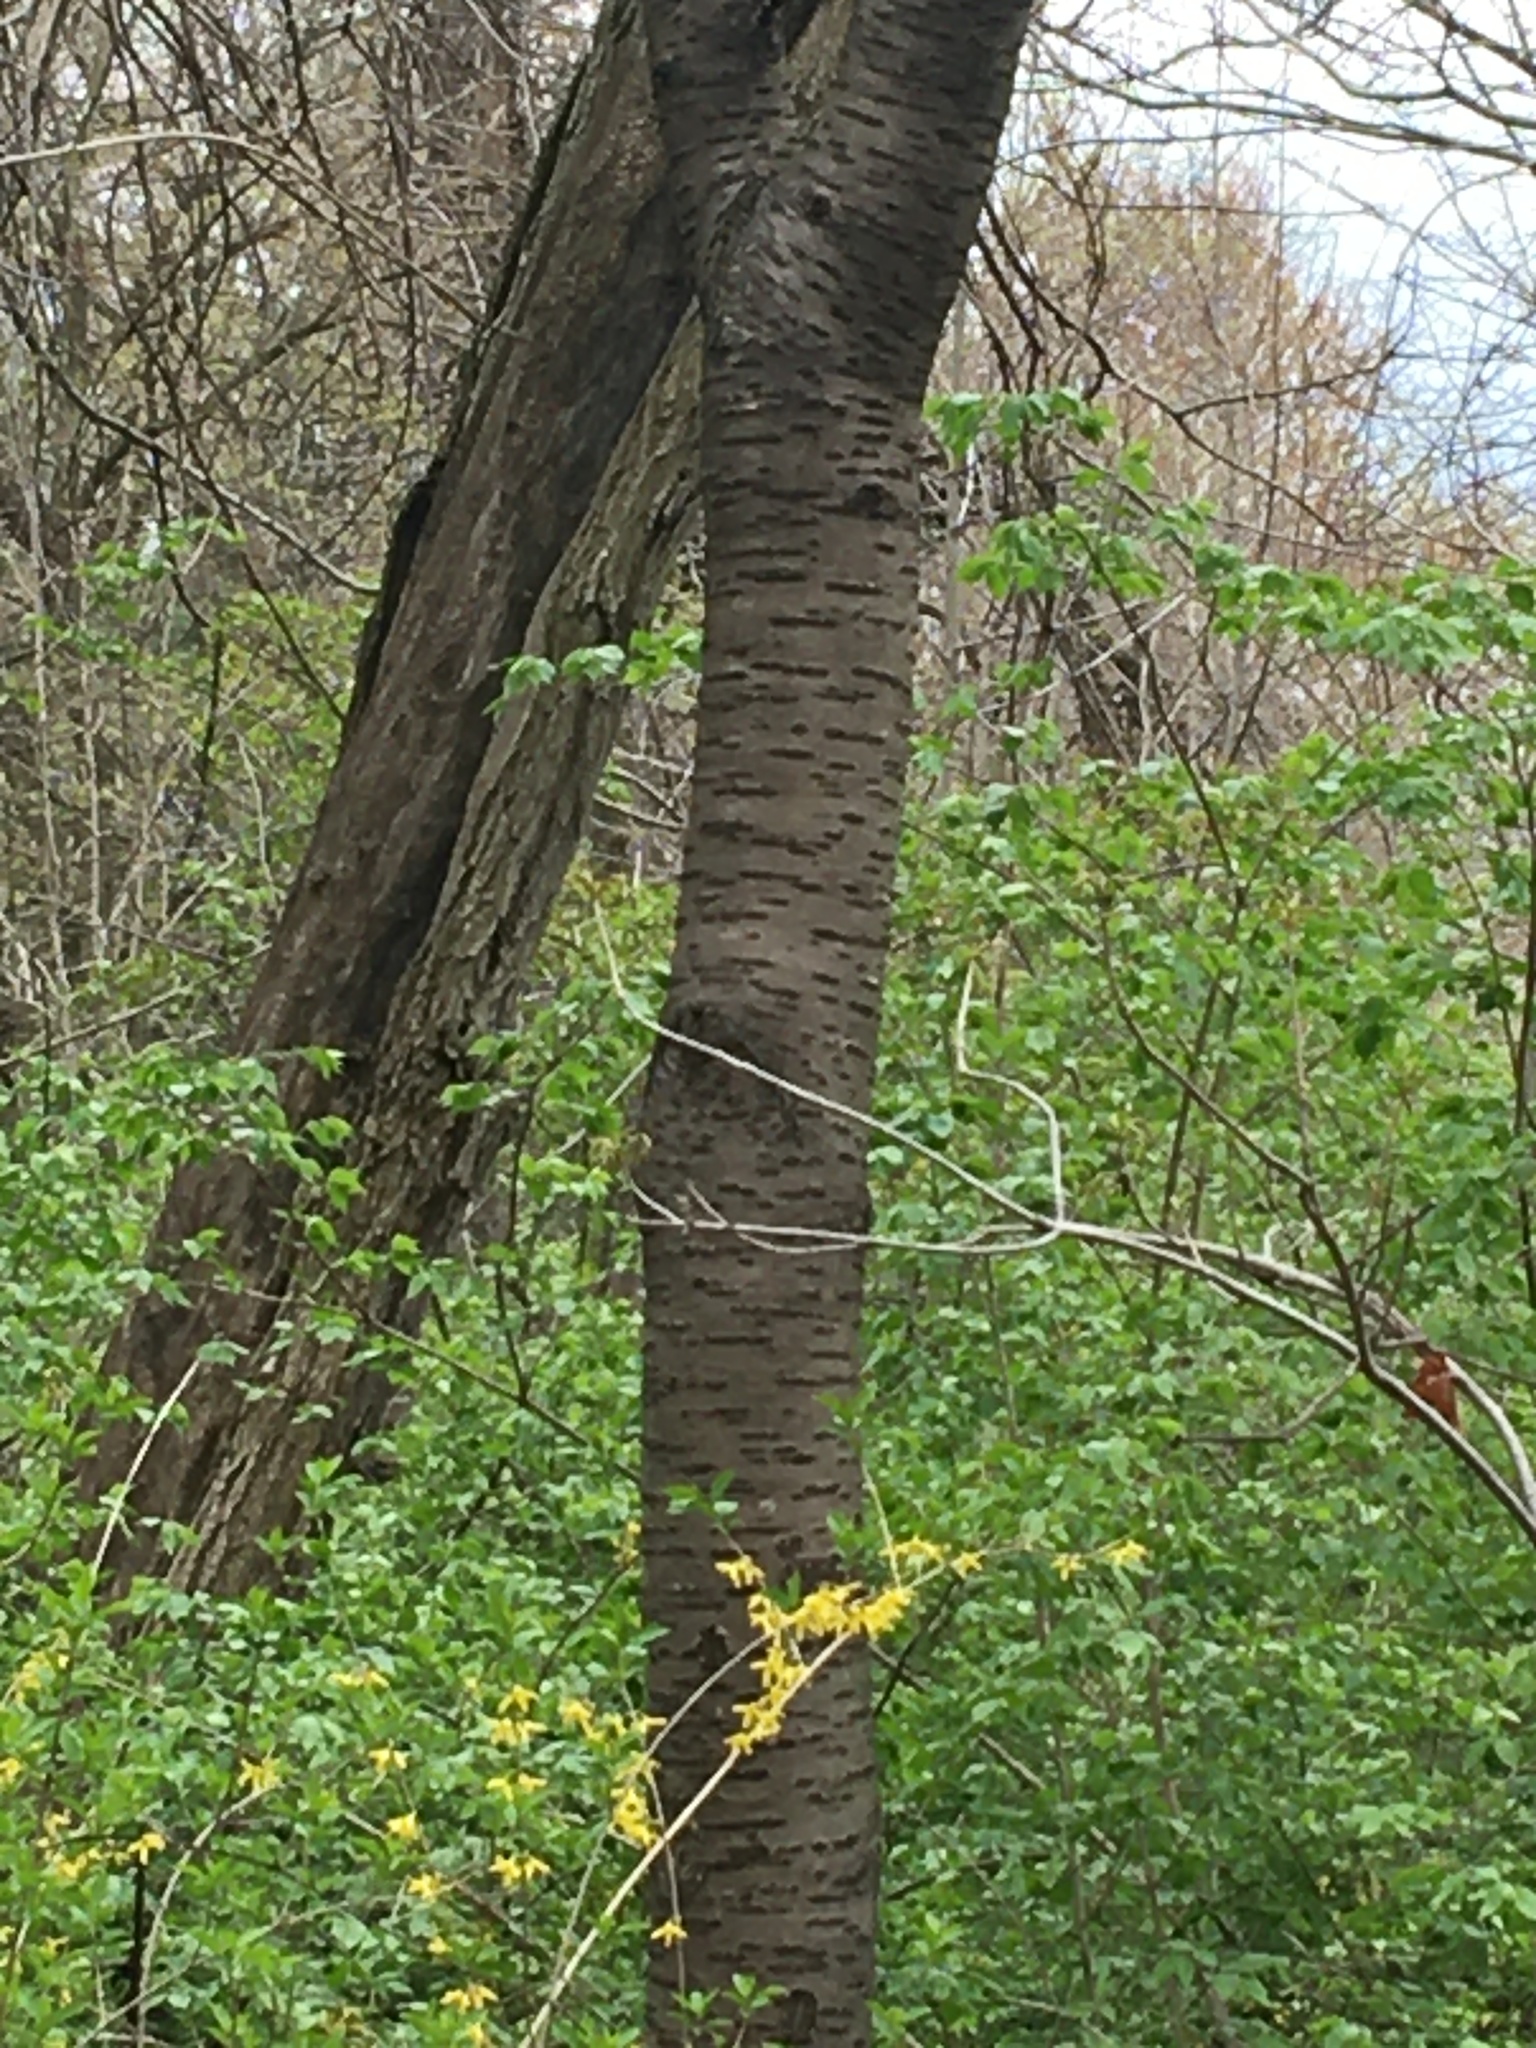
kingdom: Plantae
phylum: Tracheophyta
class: Magnoliopsida
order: Rosales
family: Rosaceae
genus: Prunus
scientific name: Prunus avium
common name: Sweet cherry
